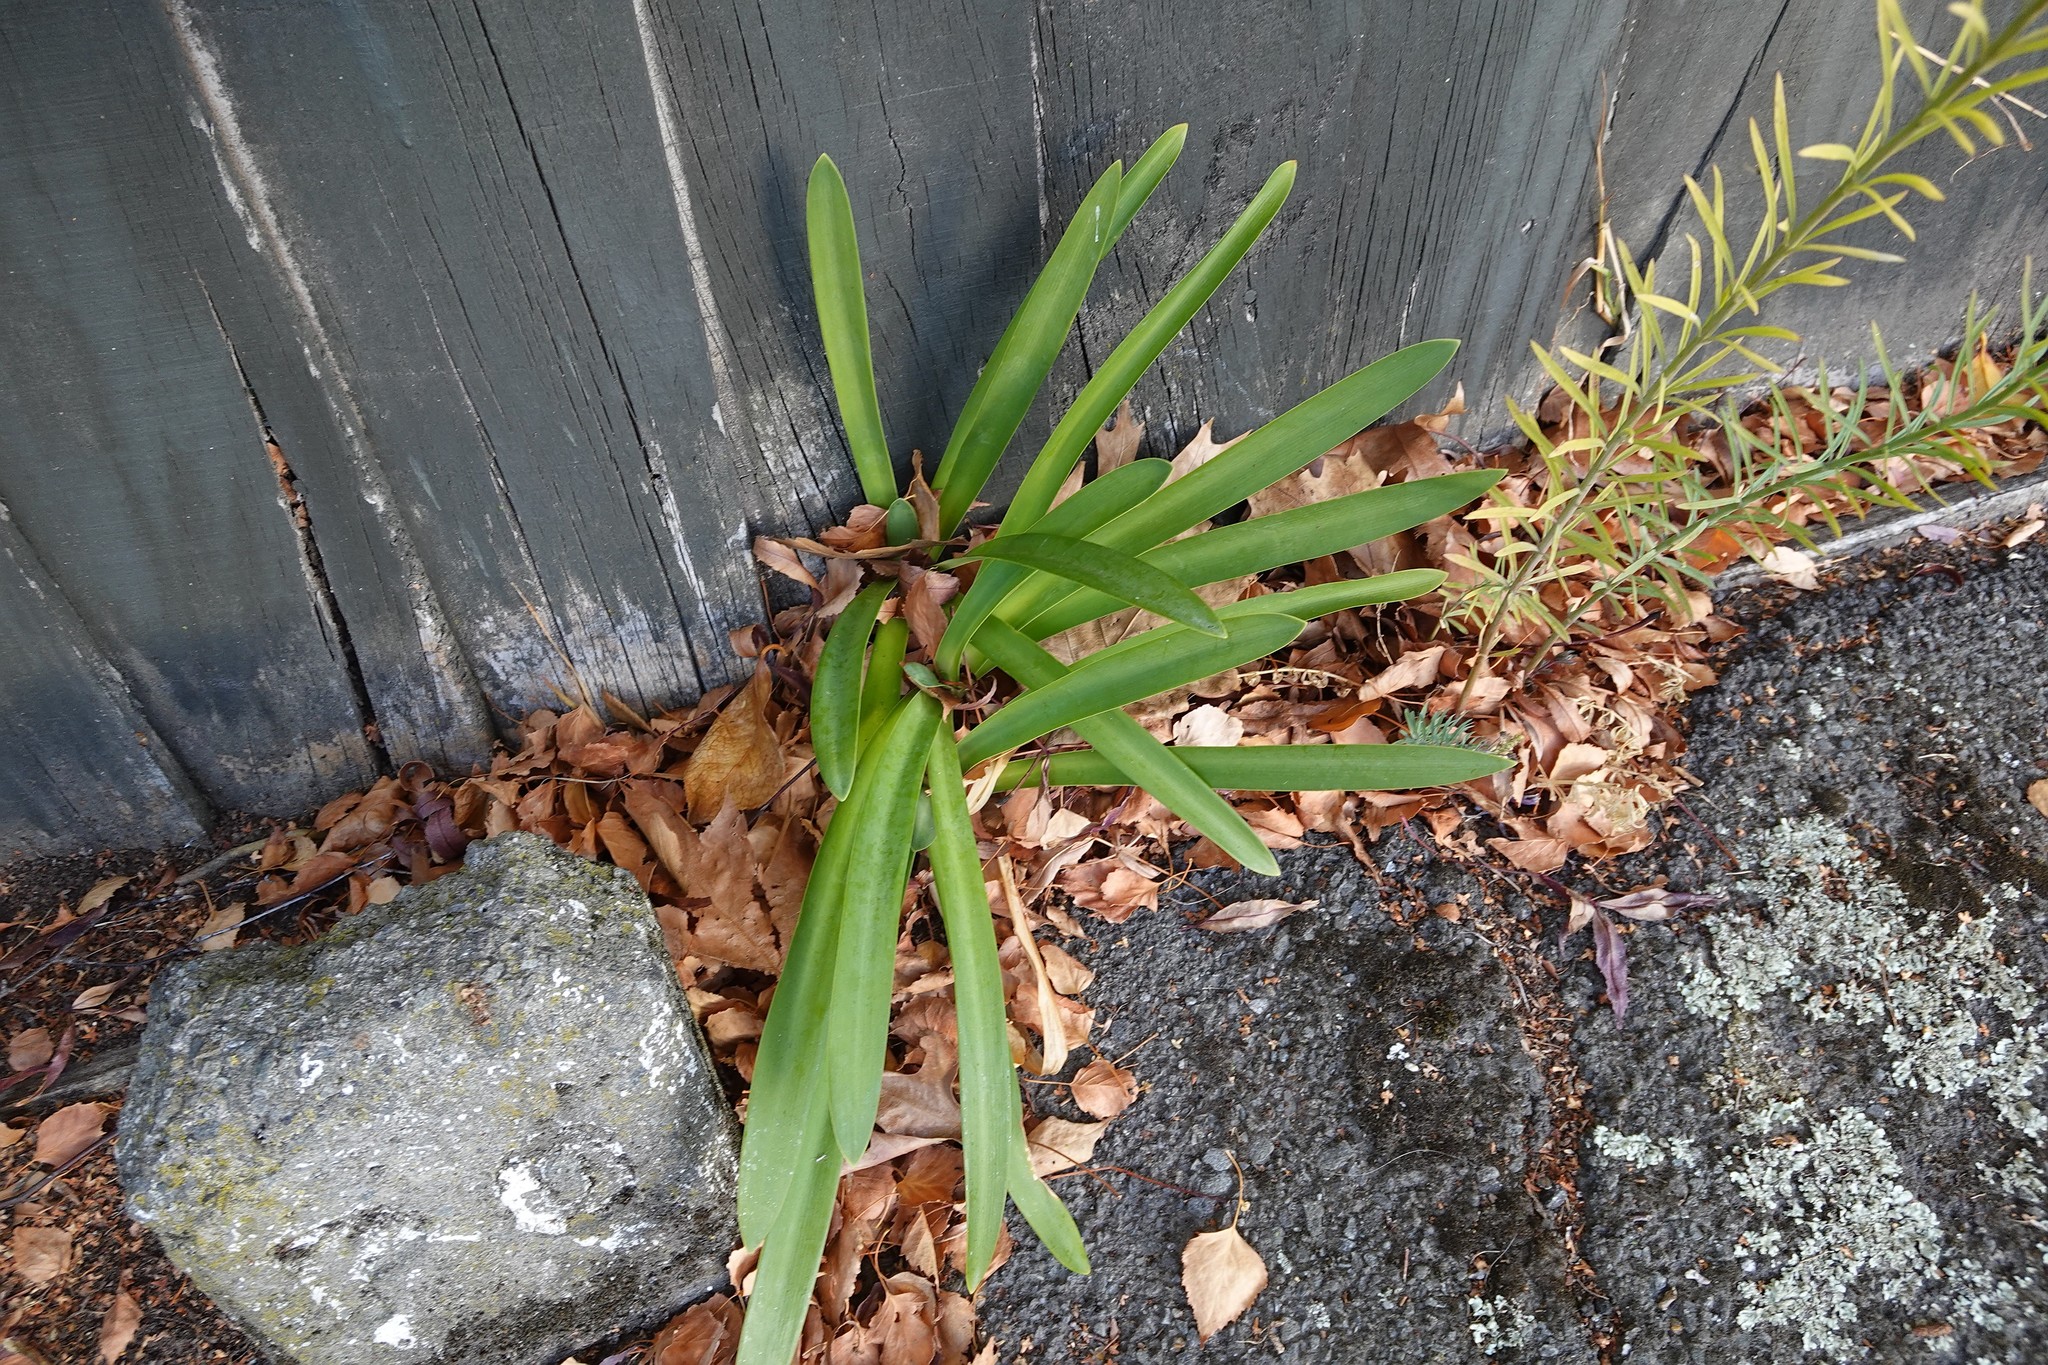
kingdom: Plantae
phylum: Tracheophyta
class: Liliopsida
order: Asparagales
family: Amaryllidaceae
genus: Agapanthus
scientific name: Agapanthus praecox
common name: African-lily
